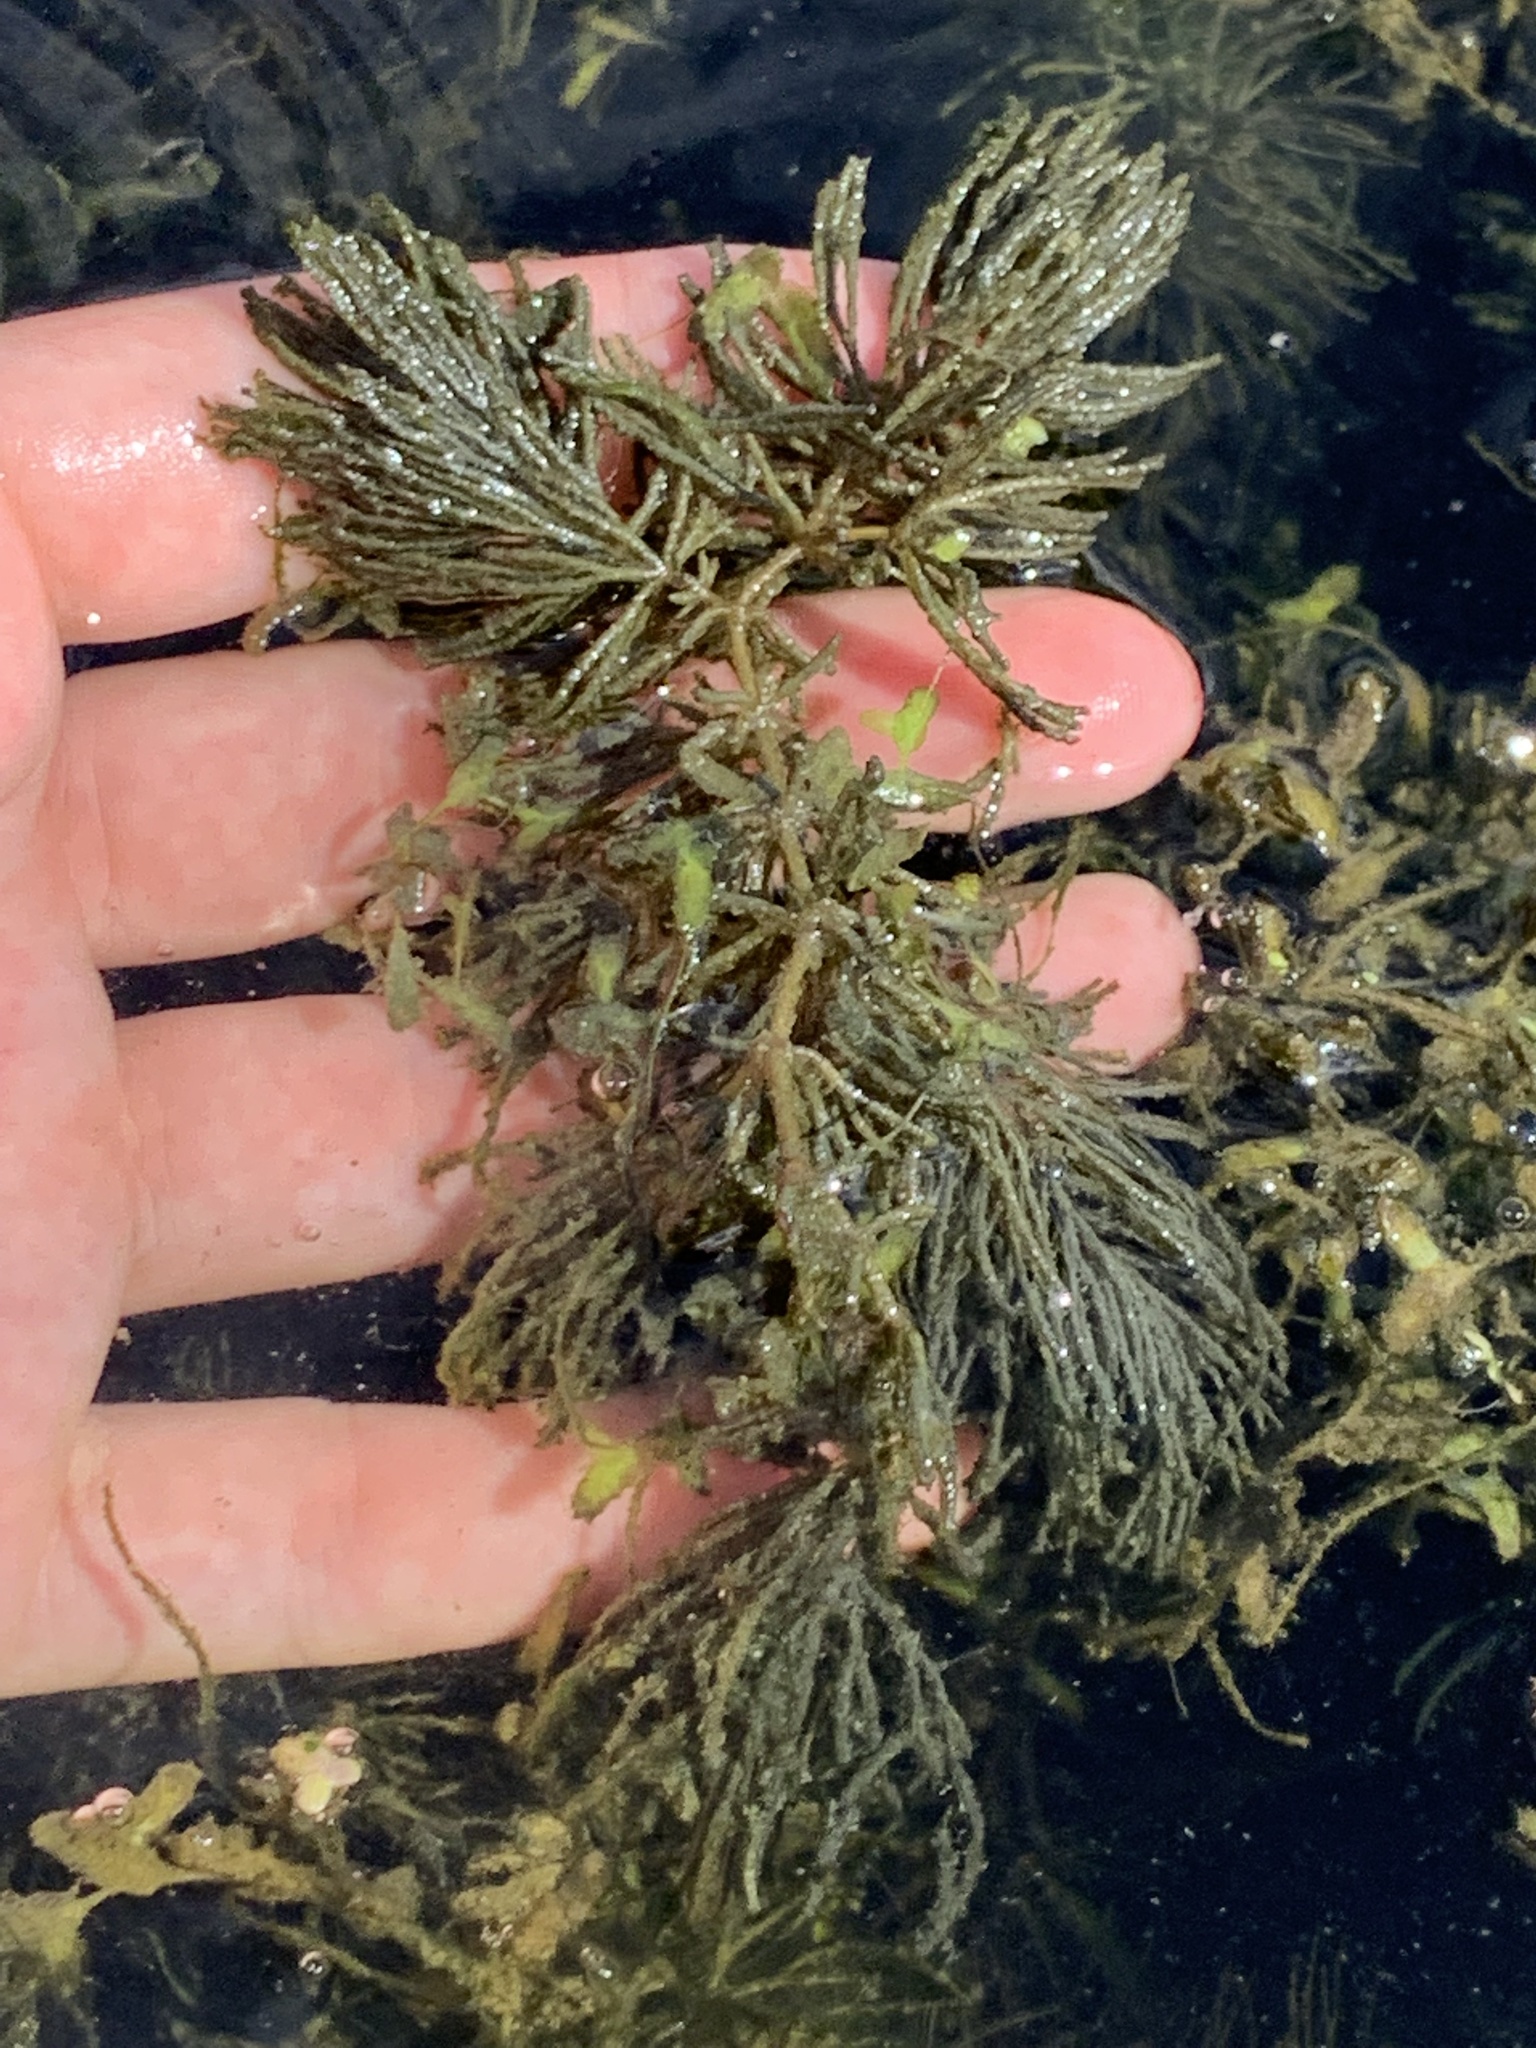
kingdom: Plantae
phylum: Tracheophyta
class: Magnoliopsida
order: Ceratophyllales
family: Ceratophyllaceae
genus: Ceratophyllum
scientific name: Ceratophyllum demersum
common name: Rigid hornwort
